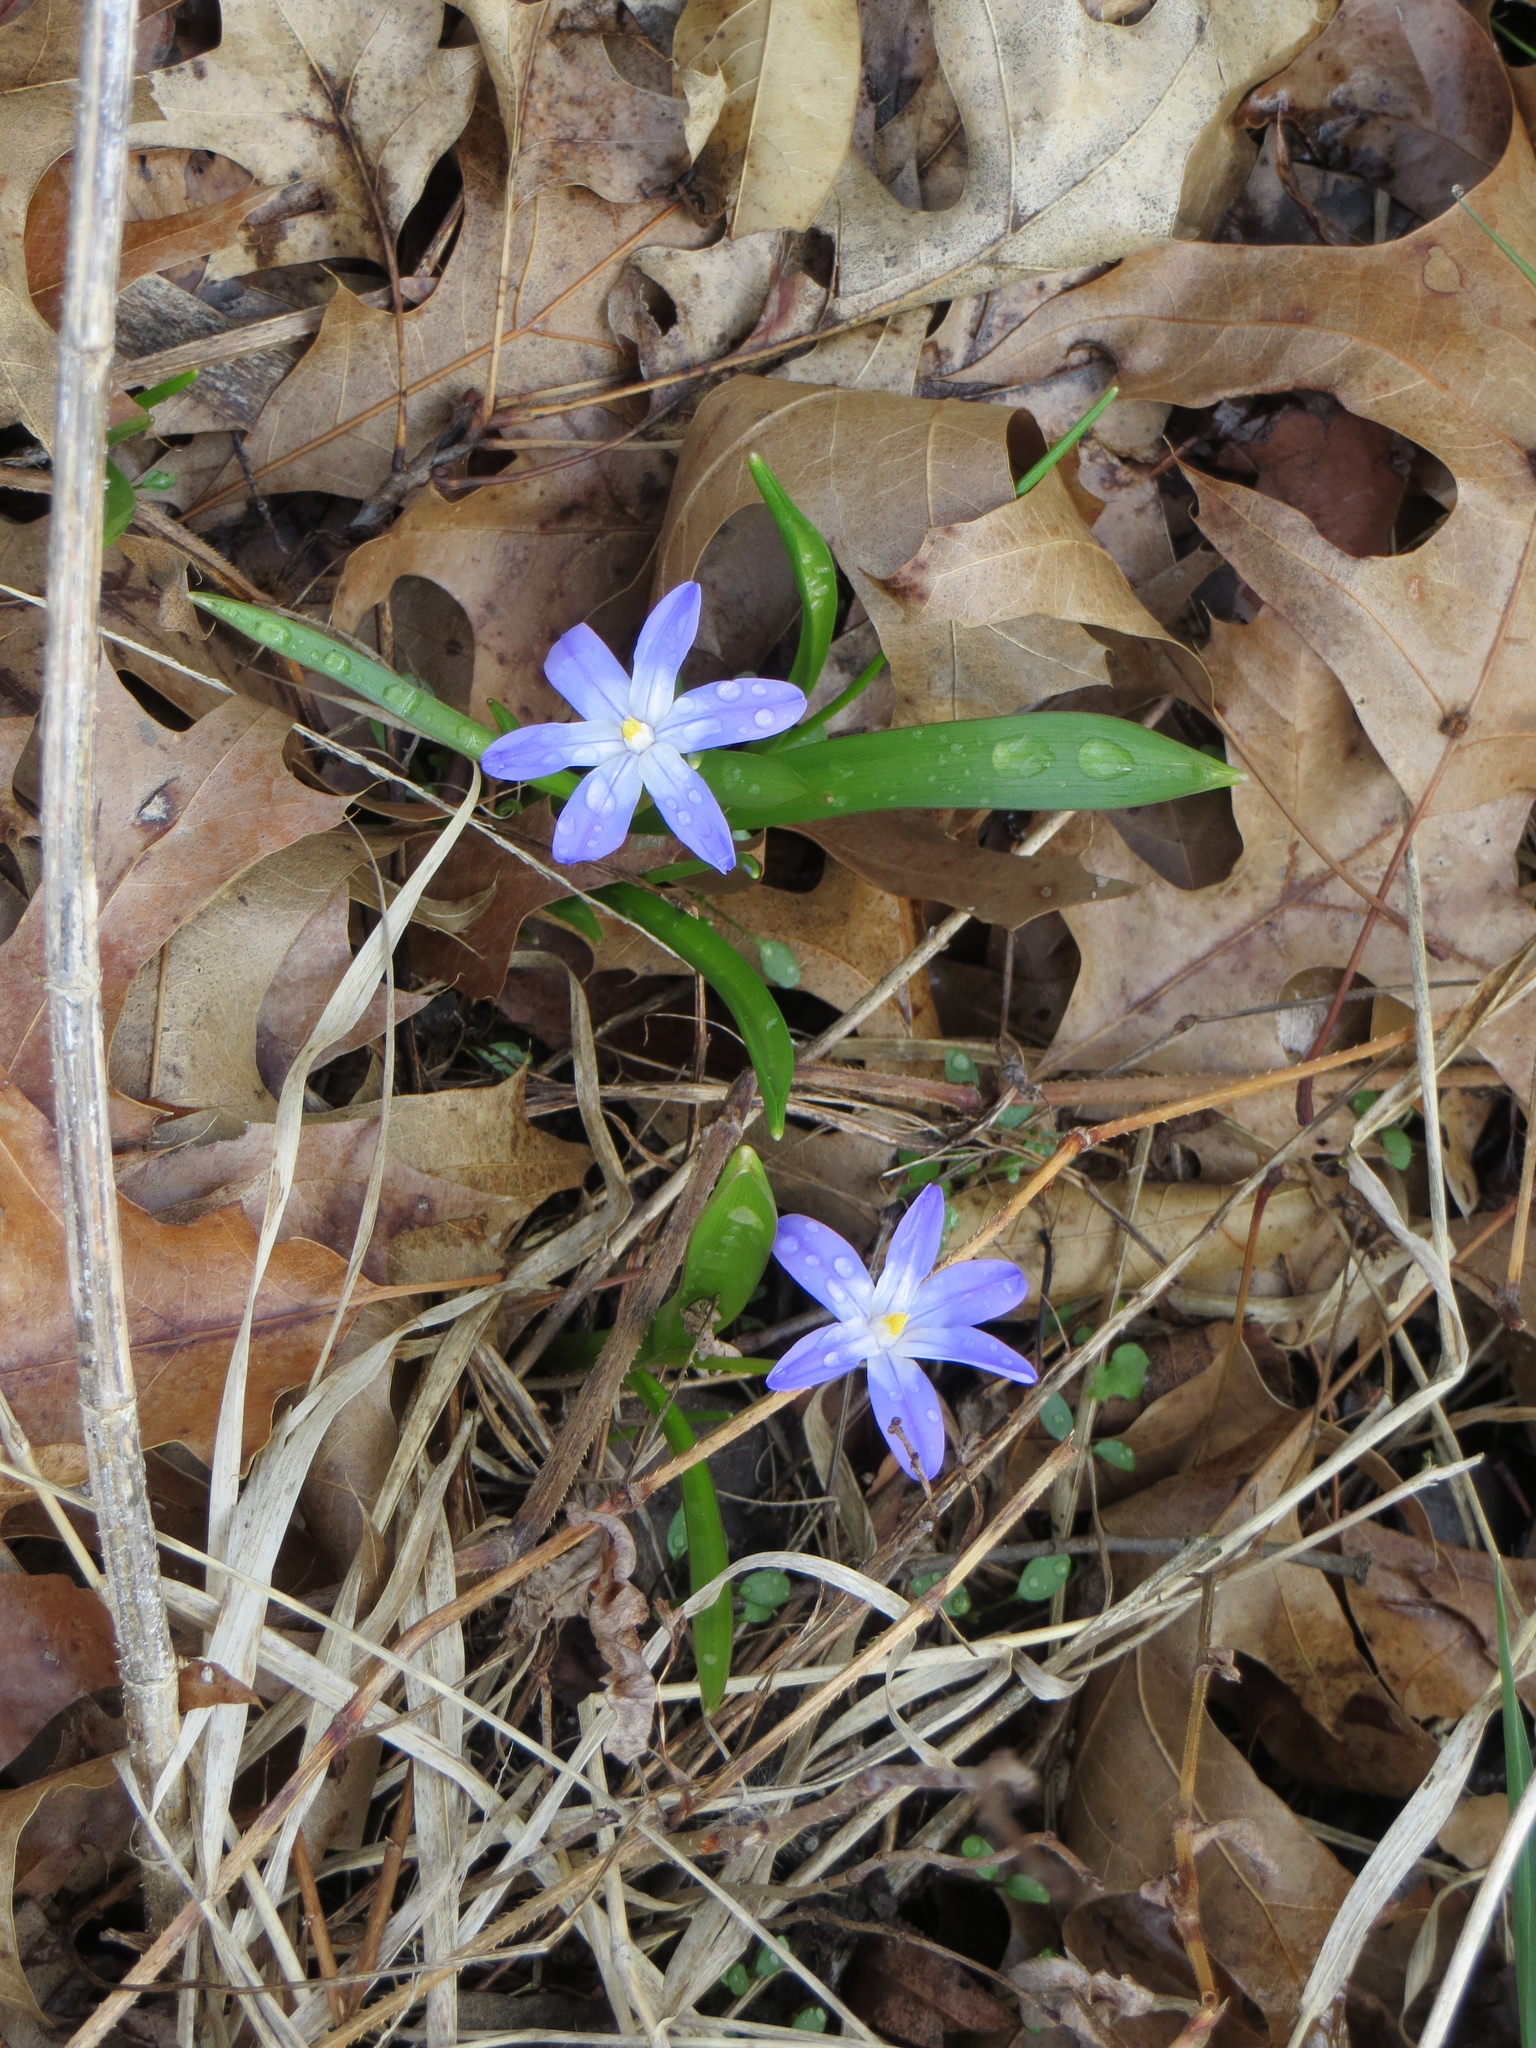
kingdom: Plantae
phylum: Tracheophyta
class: Liliopsida
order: Asparagales
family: Asparagaceae
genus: Scilla
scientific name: Scilla forbesii
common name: Glory-of-the-snow
